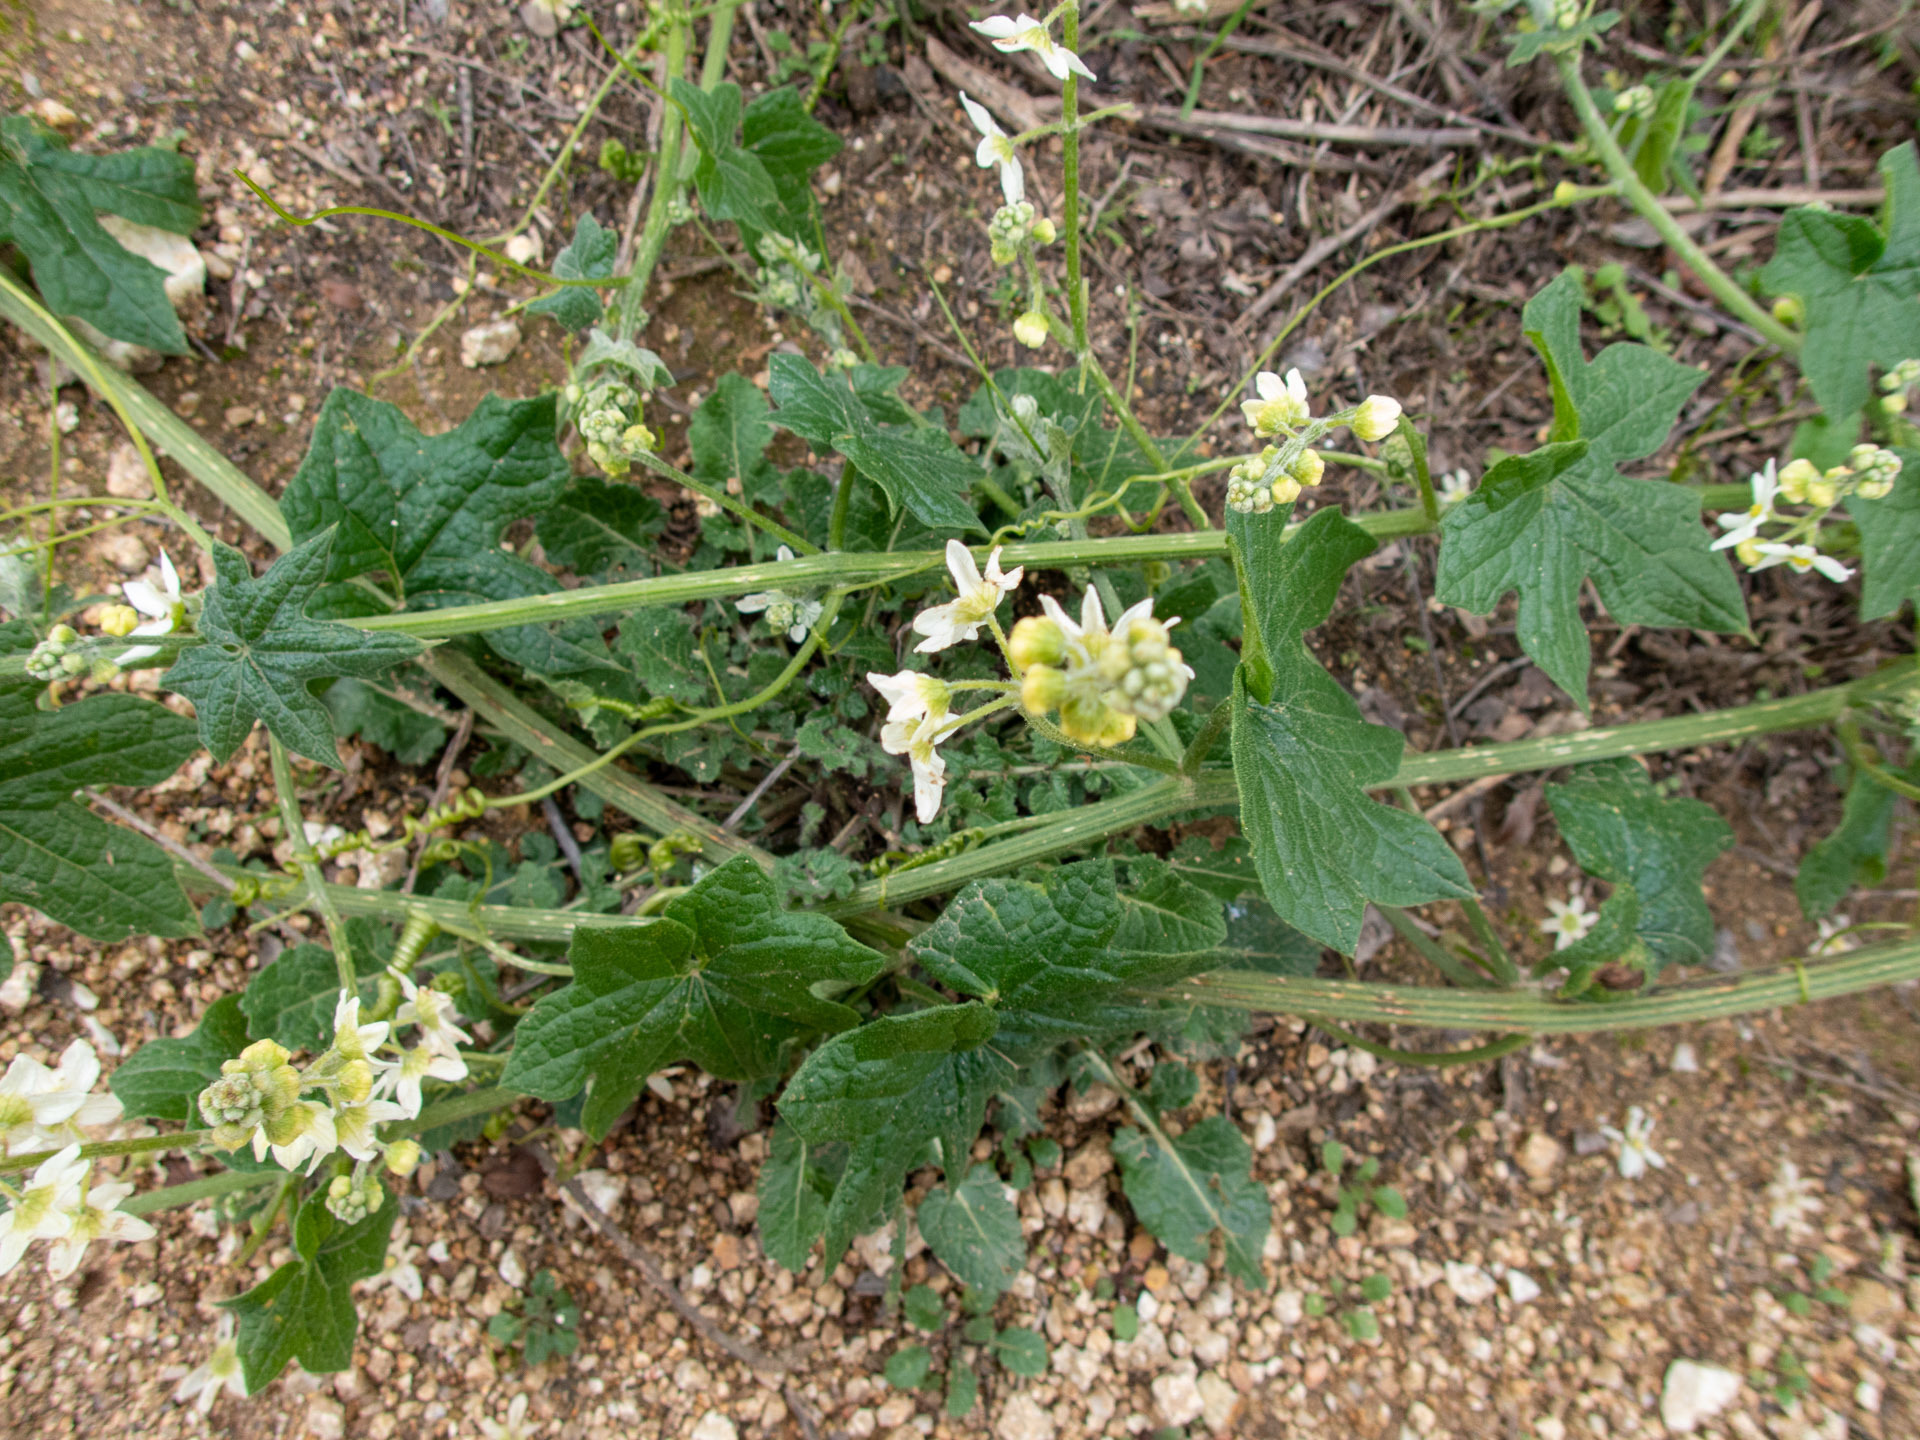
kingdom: Plantae
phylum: Tracheophyta
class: Magnoliopsida
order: Cucurbitales
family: Cucurbitaceae
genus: Marah
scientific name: Marah fabacea
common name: California manroot
